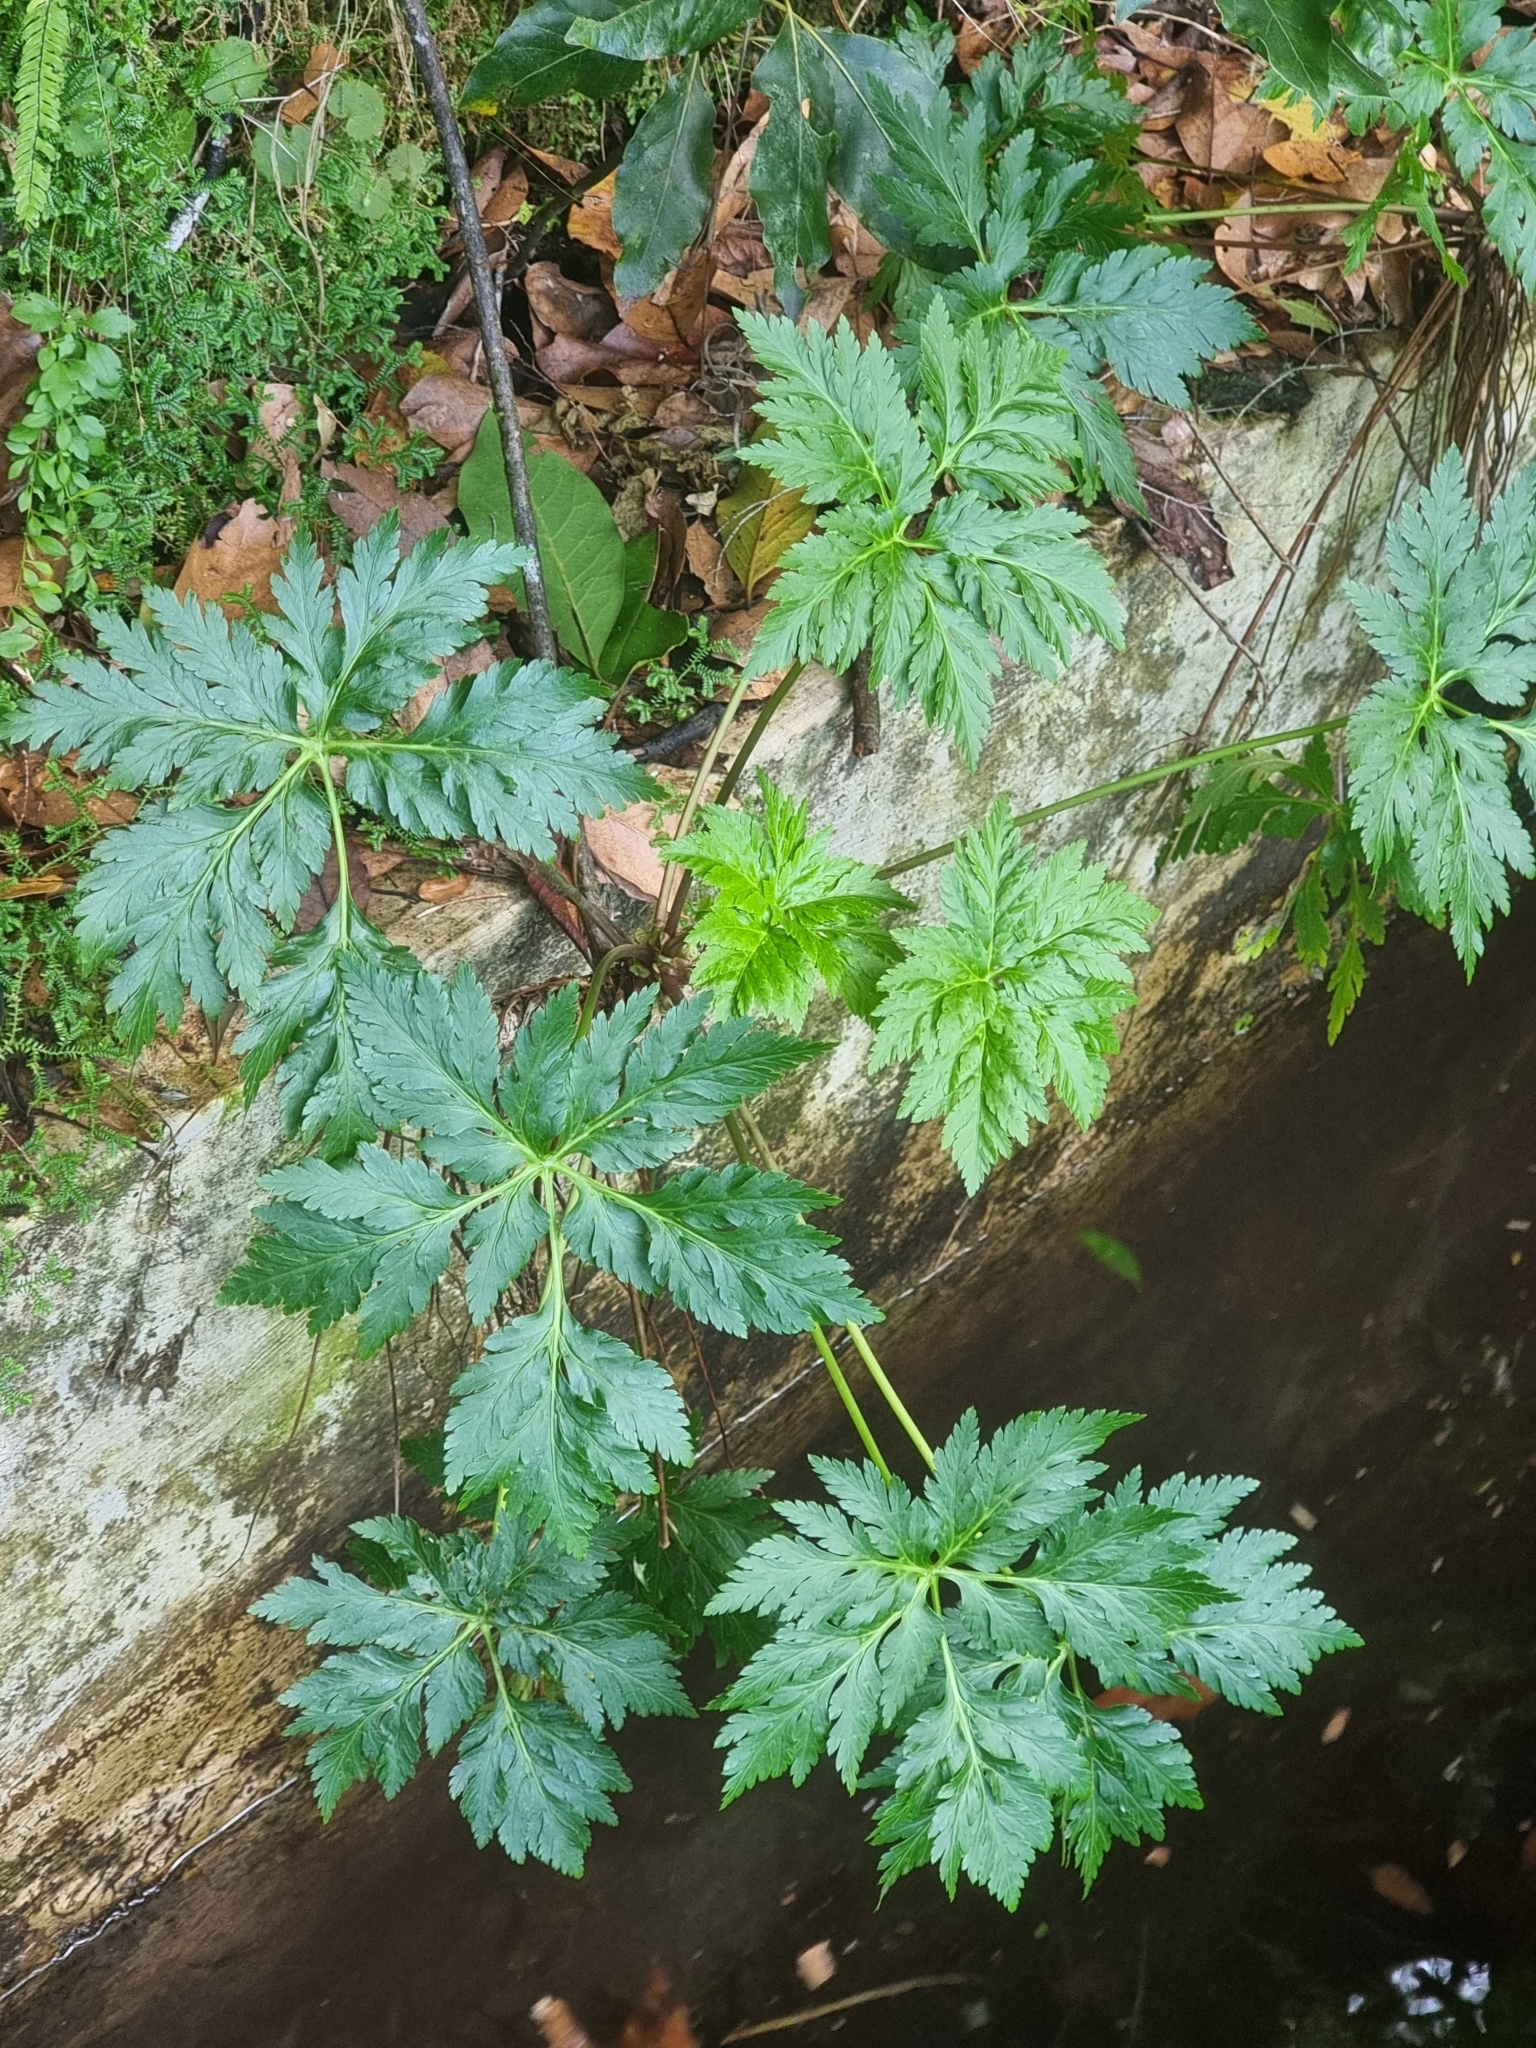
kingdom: Plantae
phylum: Tracheophyta
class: Magnoliopsida
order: Geraniales
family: Geraniaceae
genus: Geranium
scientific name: Geranium palmatum
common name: Canary island geranium
